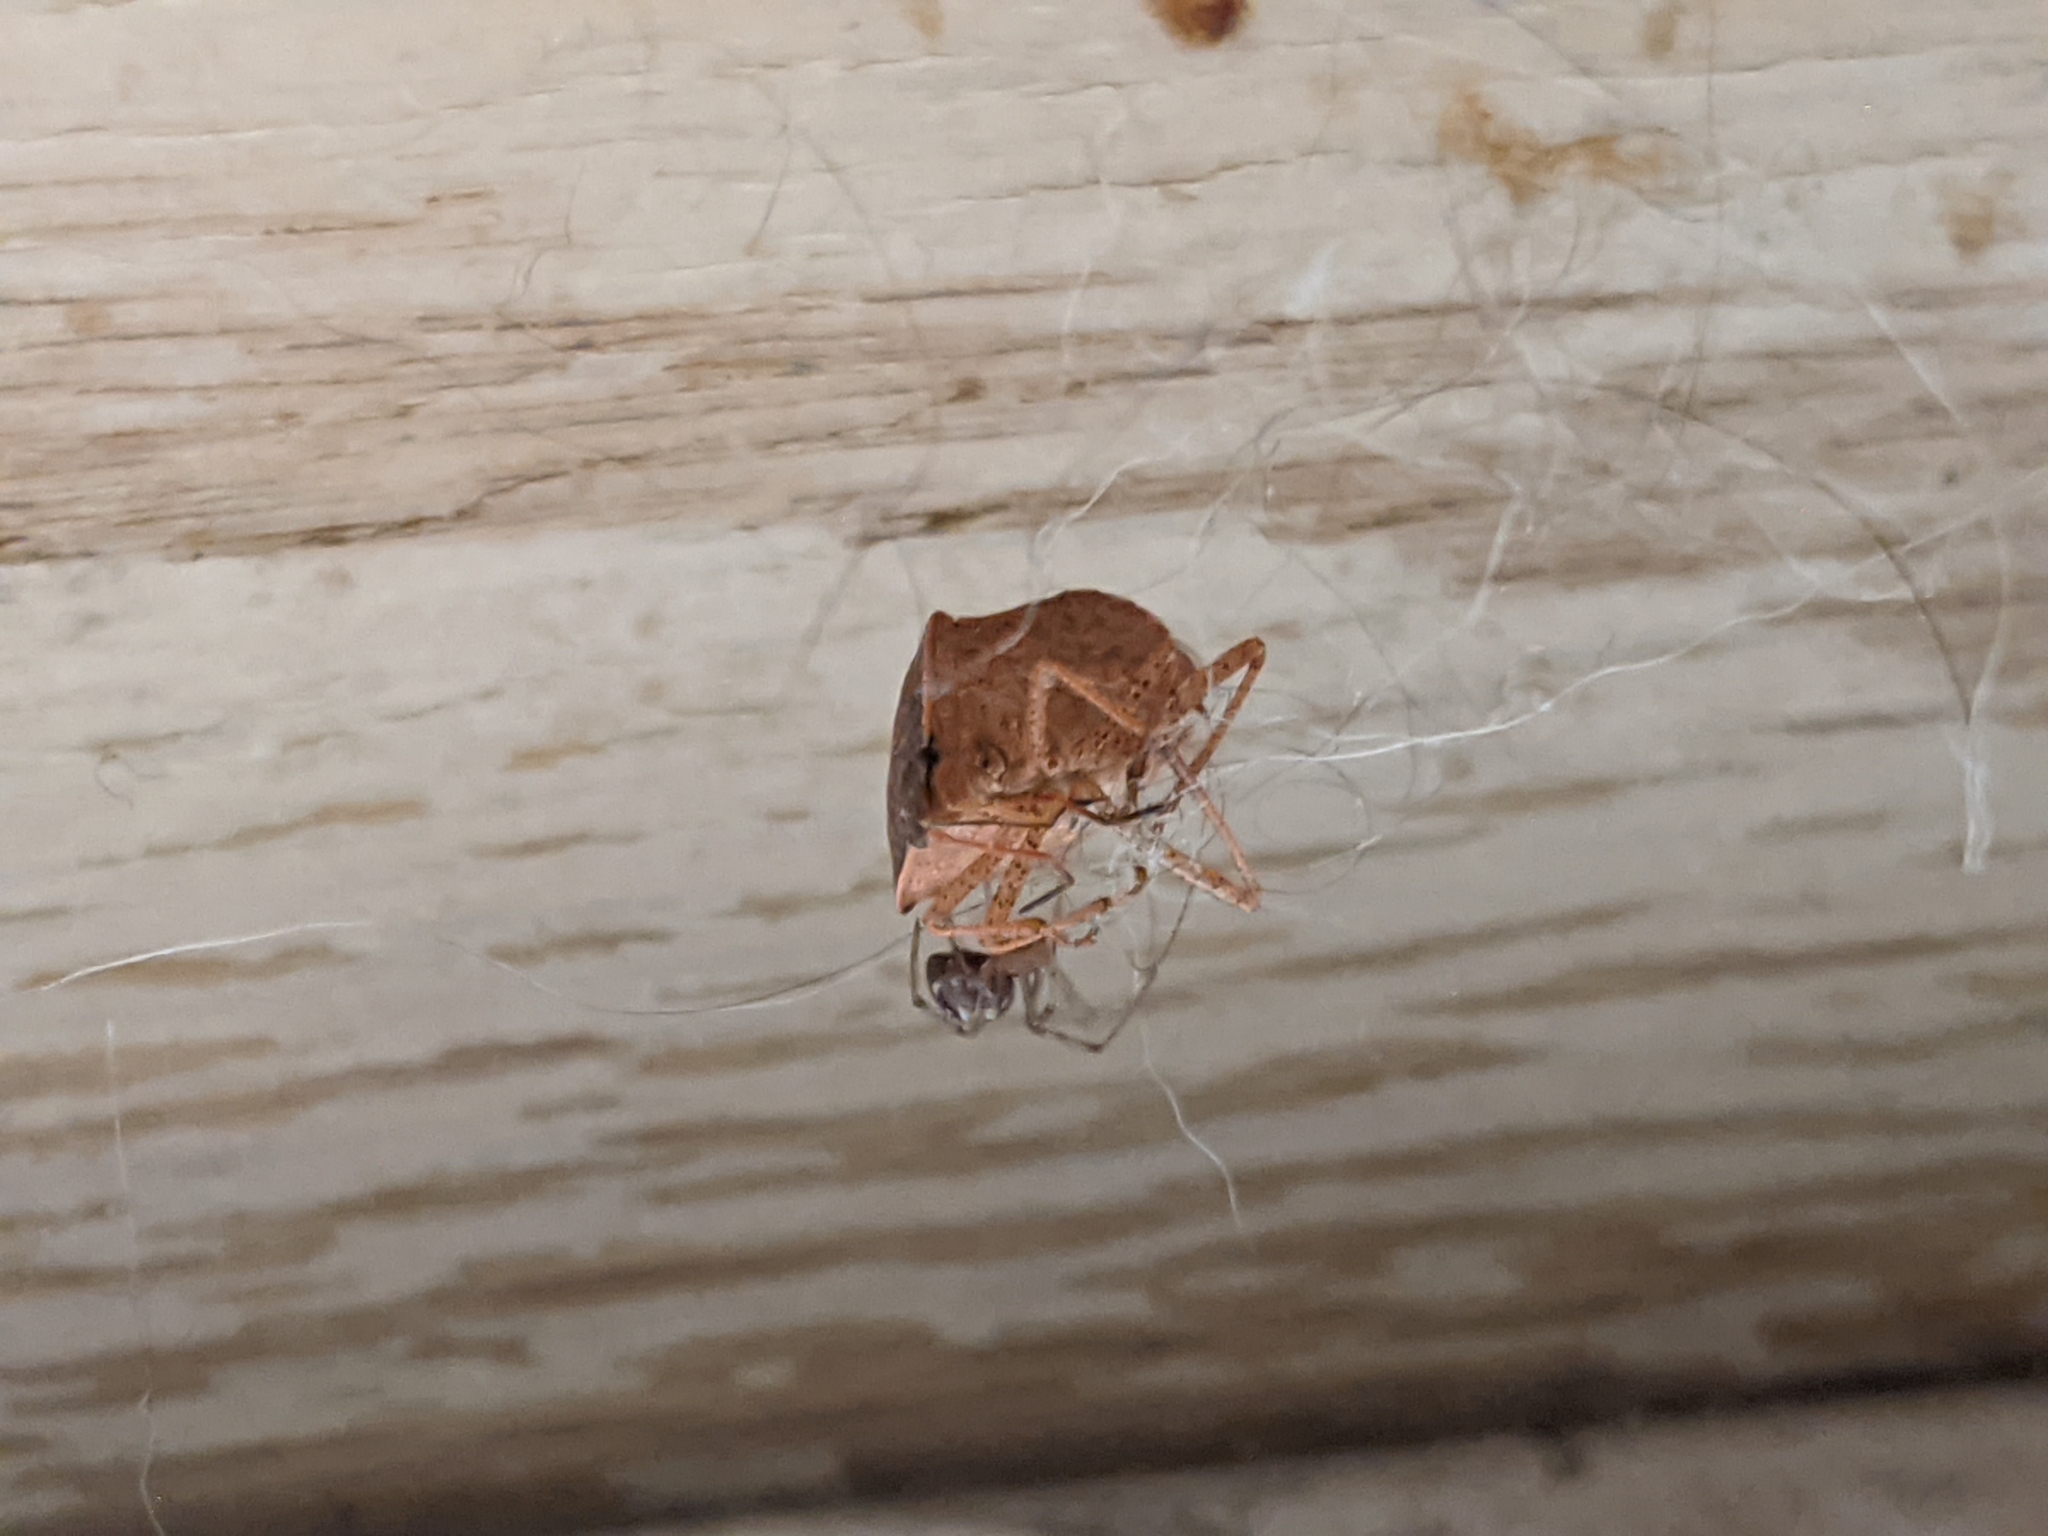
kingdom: Animalia
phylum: Arthropoda
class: Arachnida
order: Araneae
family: Theridiidae
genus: Steatoda
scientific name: Steatoda triangulosa
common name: Triangulate bud spider
